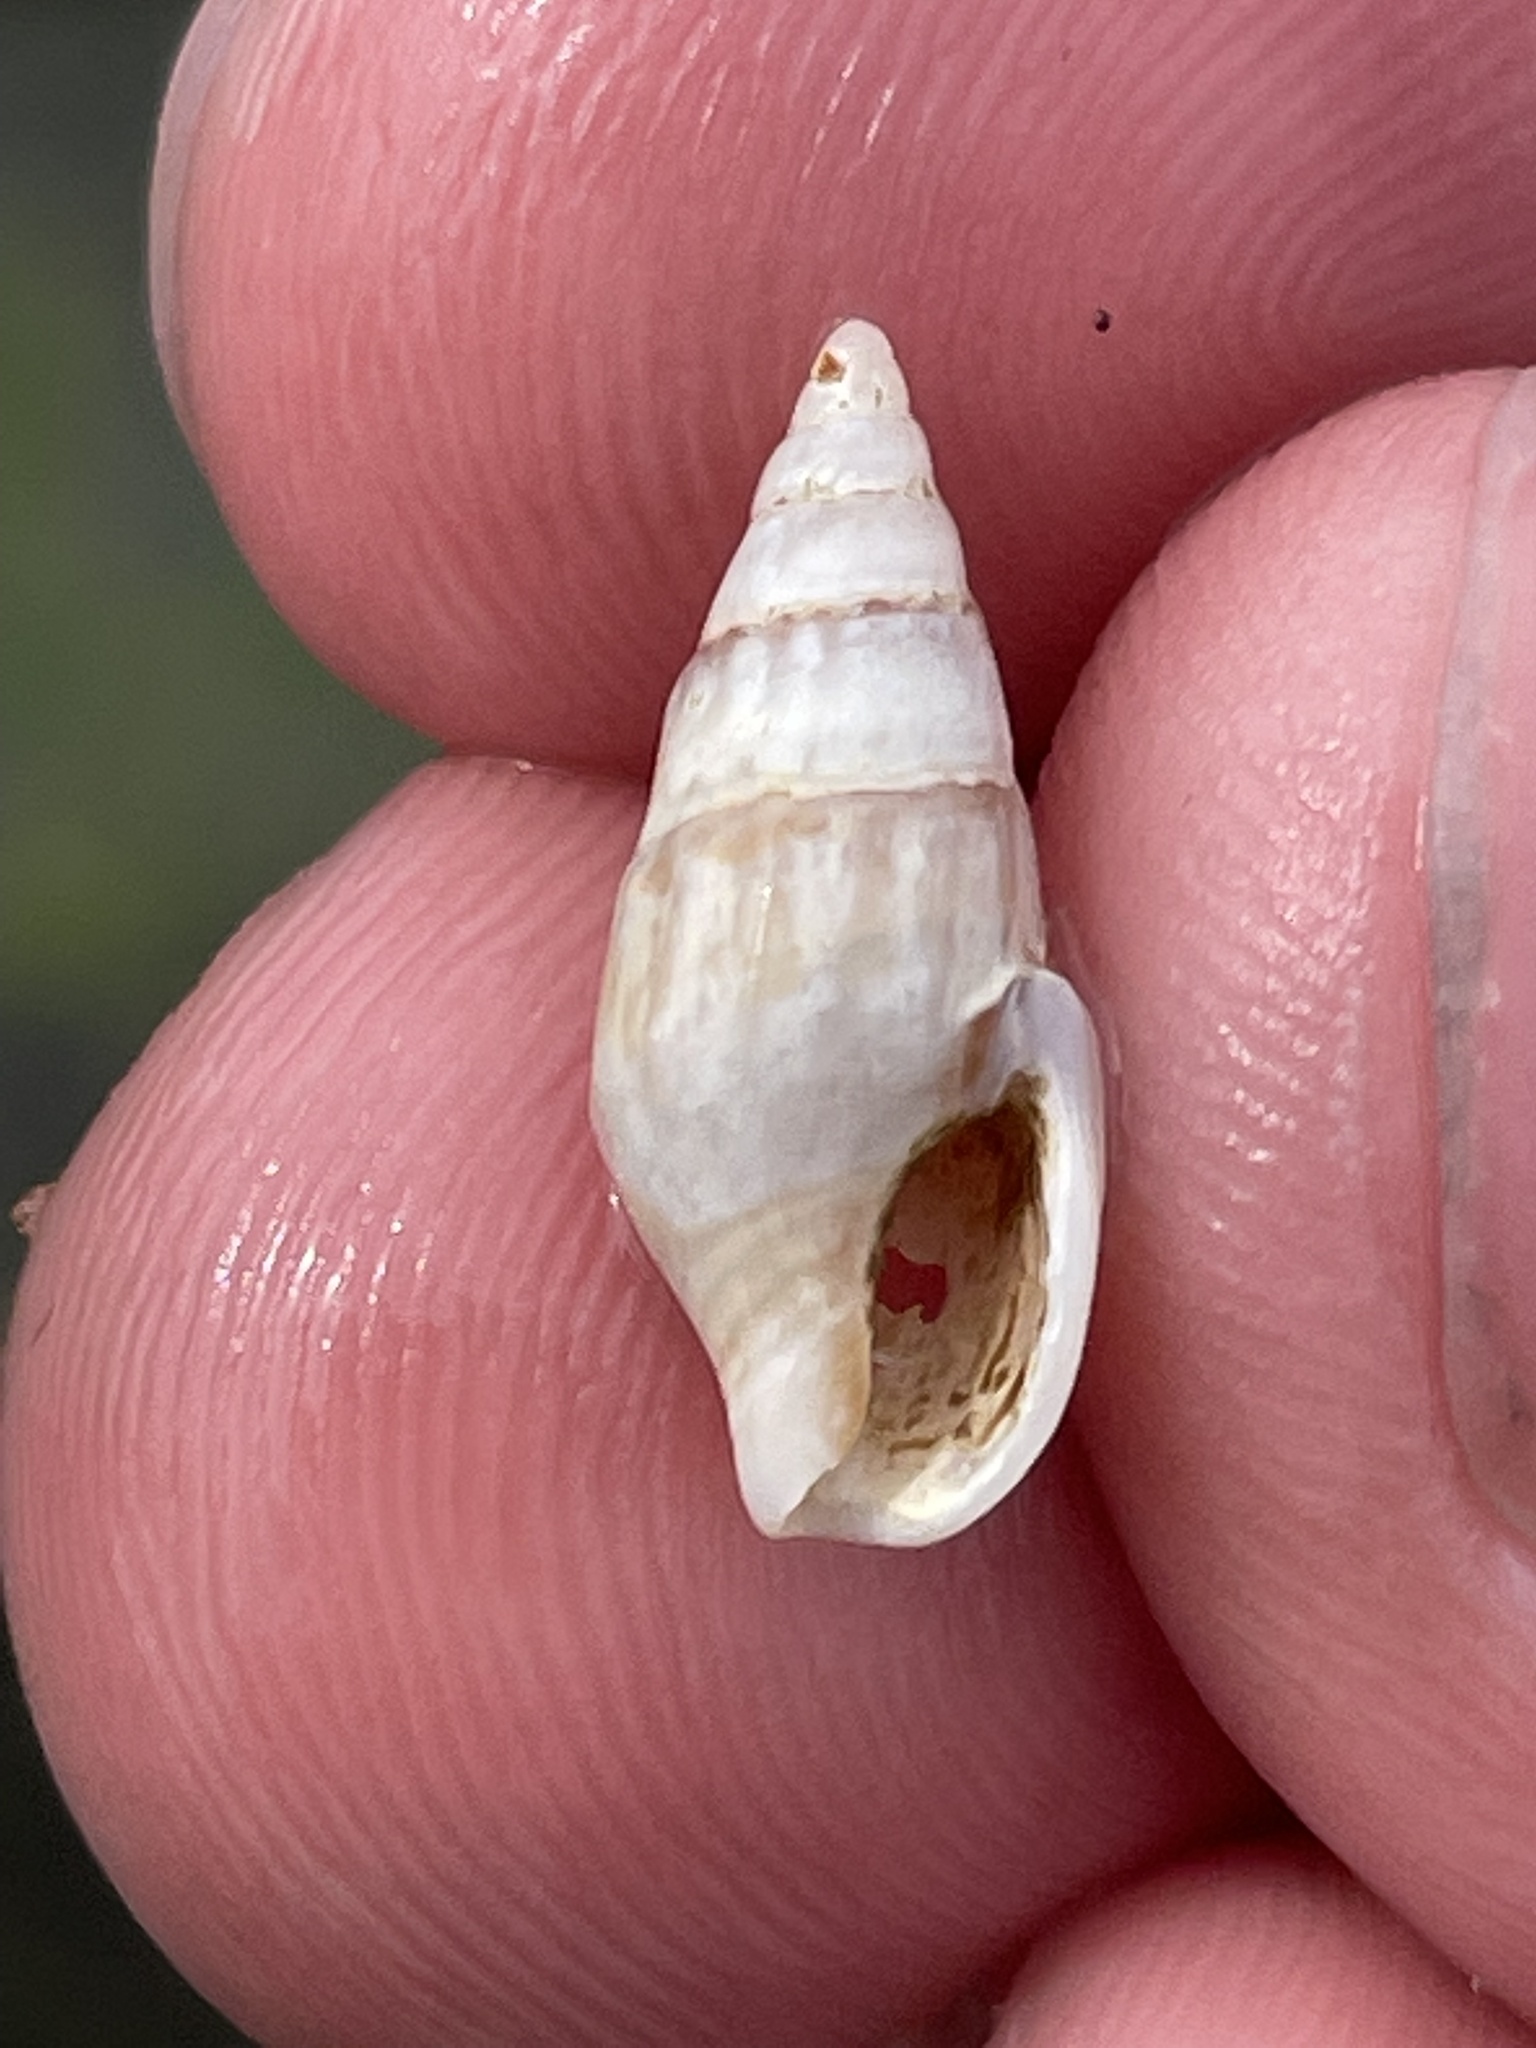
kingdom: Animalia
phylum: Mollusca
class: Gastropoda
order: Neogastropoda
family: Columbellidae
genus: Costoanachis
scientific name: Costoanachis translirata
